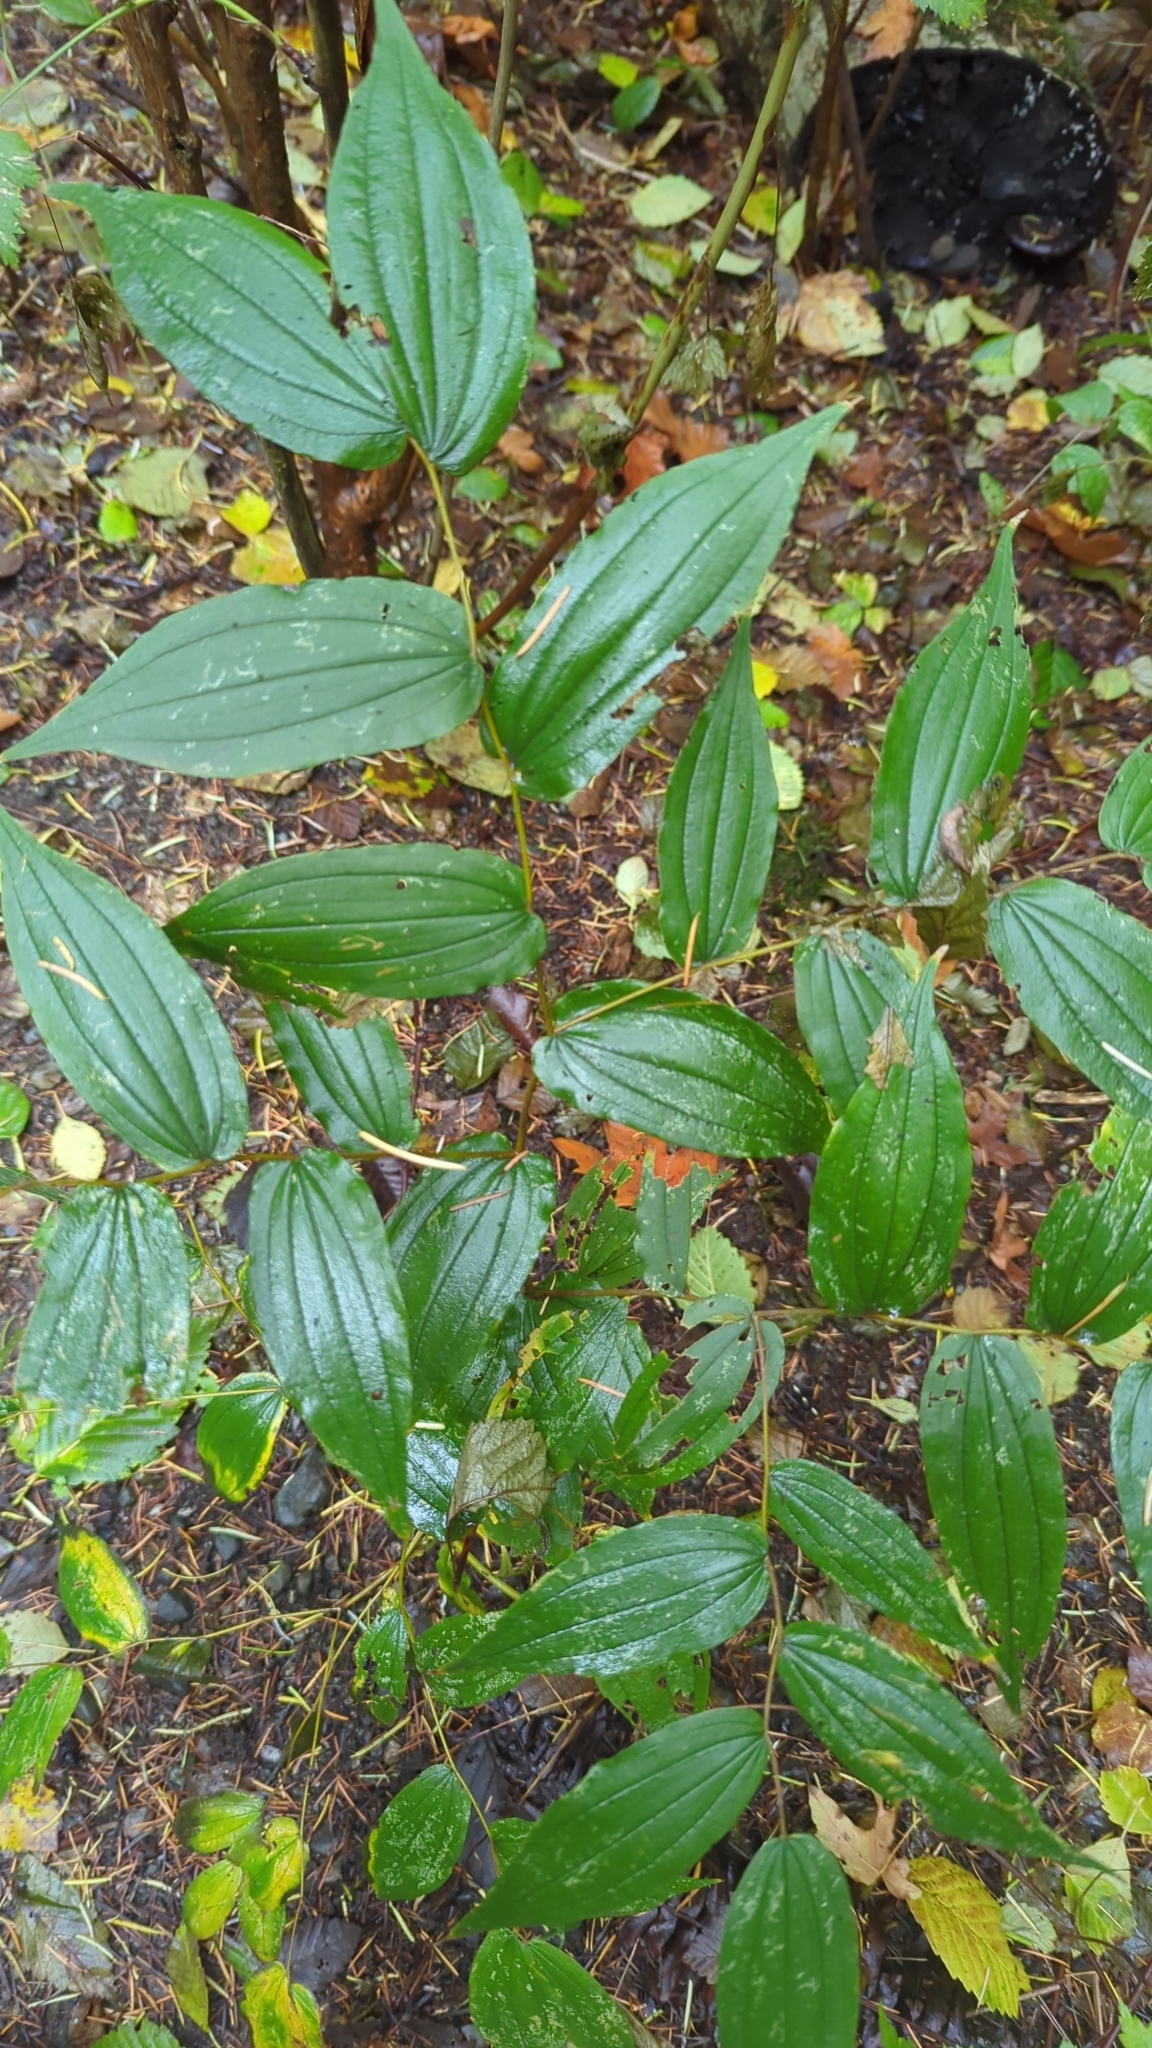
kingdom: Plantae
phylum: Tracheophyta
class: Liliopsida
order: Liliales
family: Liliaceae
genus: Prosartes
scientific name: Prosartes hookeri
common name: Fairy-bells
